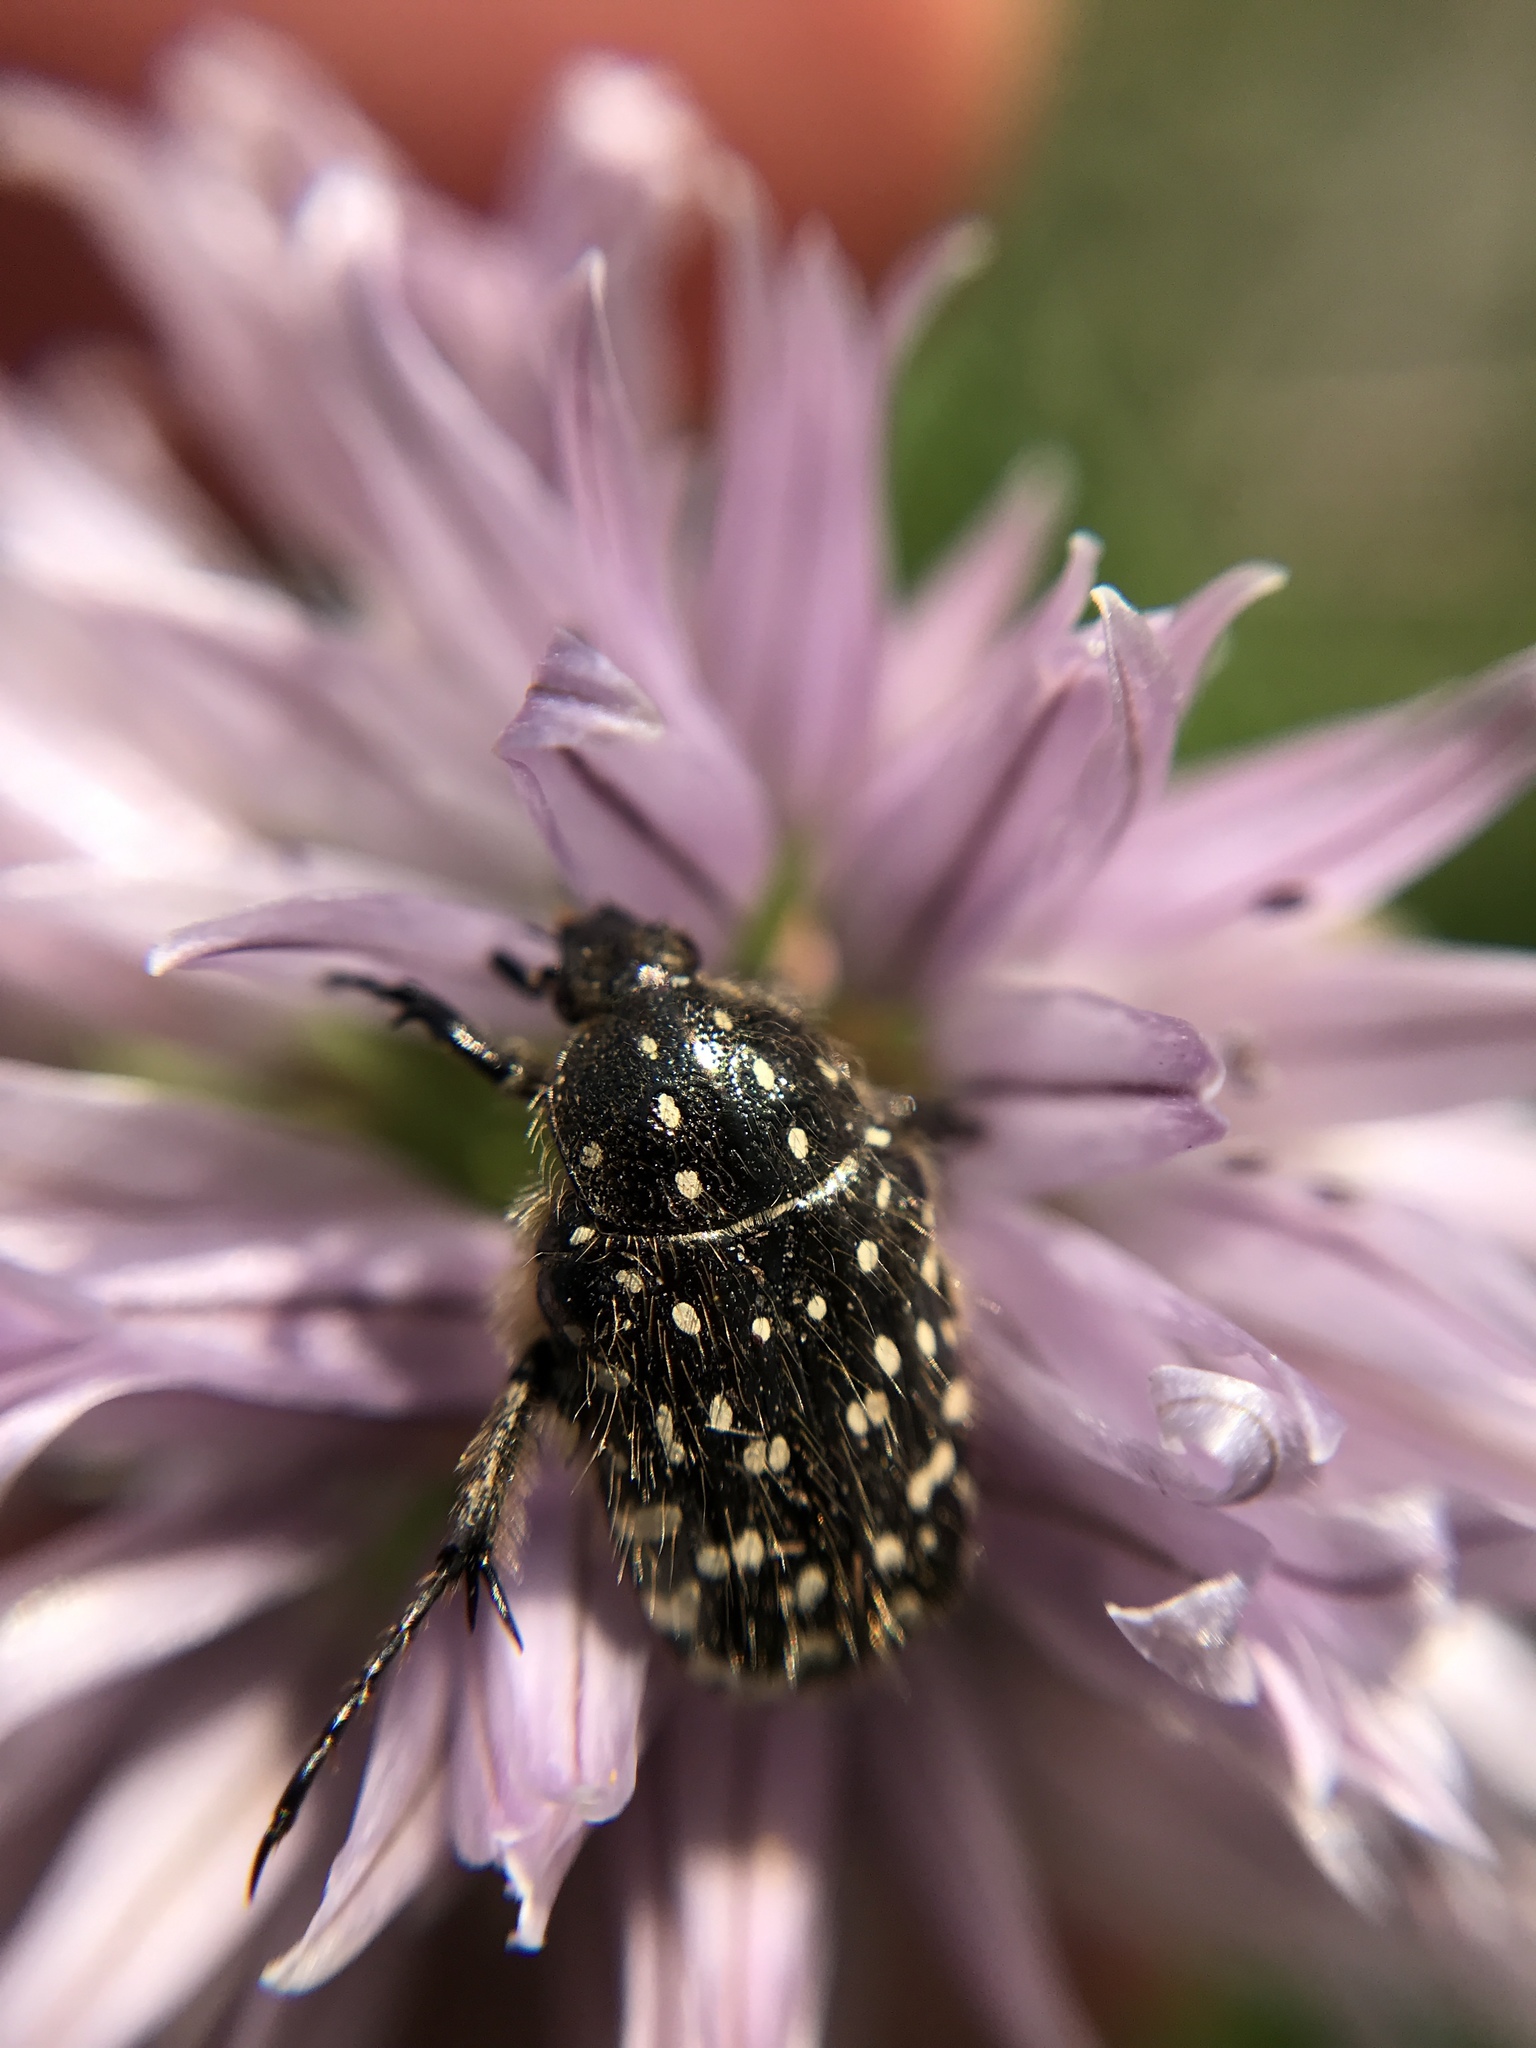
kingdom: Animalia
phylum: Arthropoda
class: Insecta
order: Coleoptera
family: Scarabaeidae
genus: Oxythyrea
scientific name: Oxythyrea funesta
